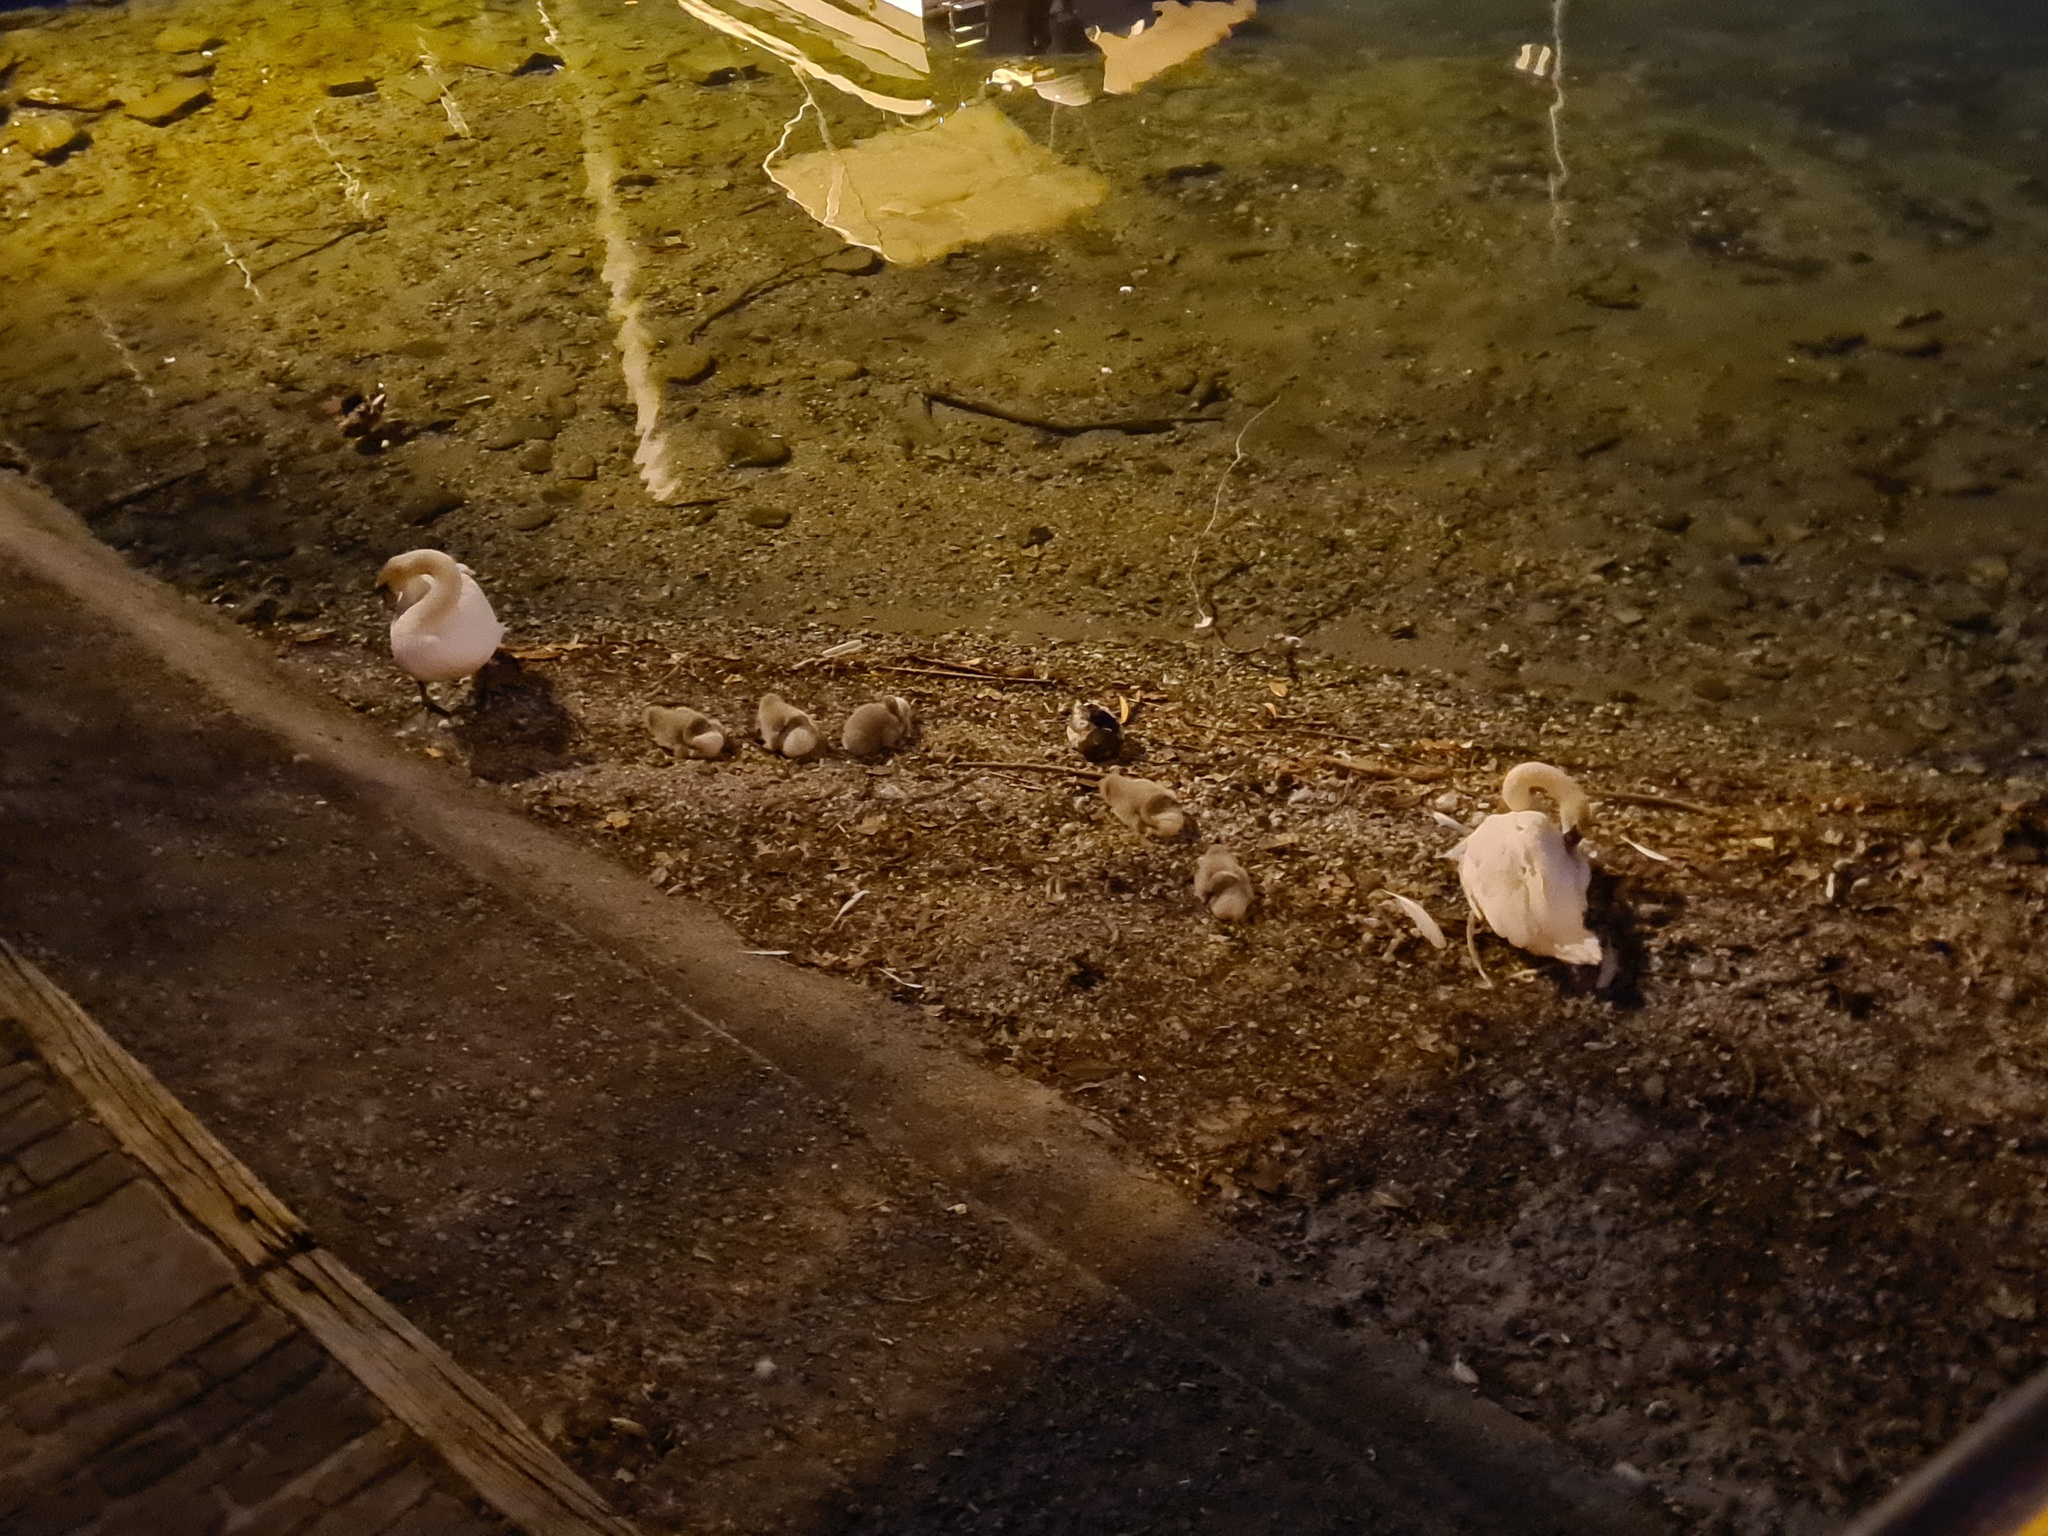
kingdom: Animalia
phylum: Chordata
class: Aves
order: Anseriformes
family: Anatidae
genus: Cygnus
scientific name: Cygnus olor
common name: Mute swan
